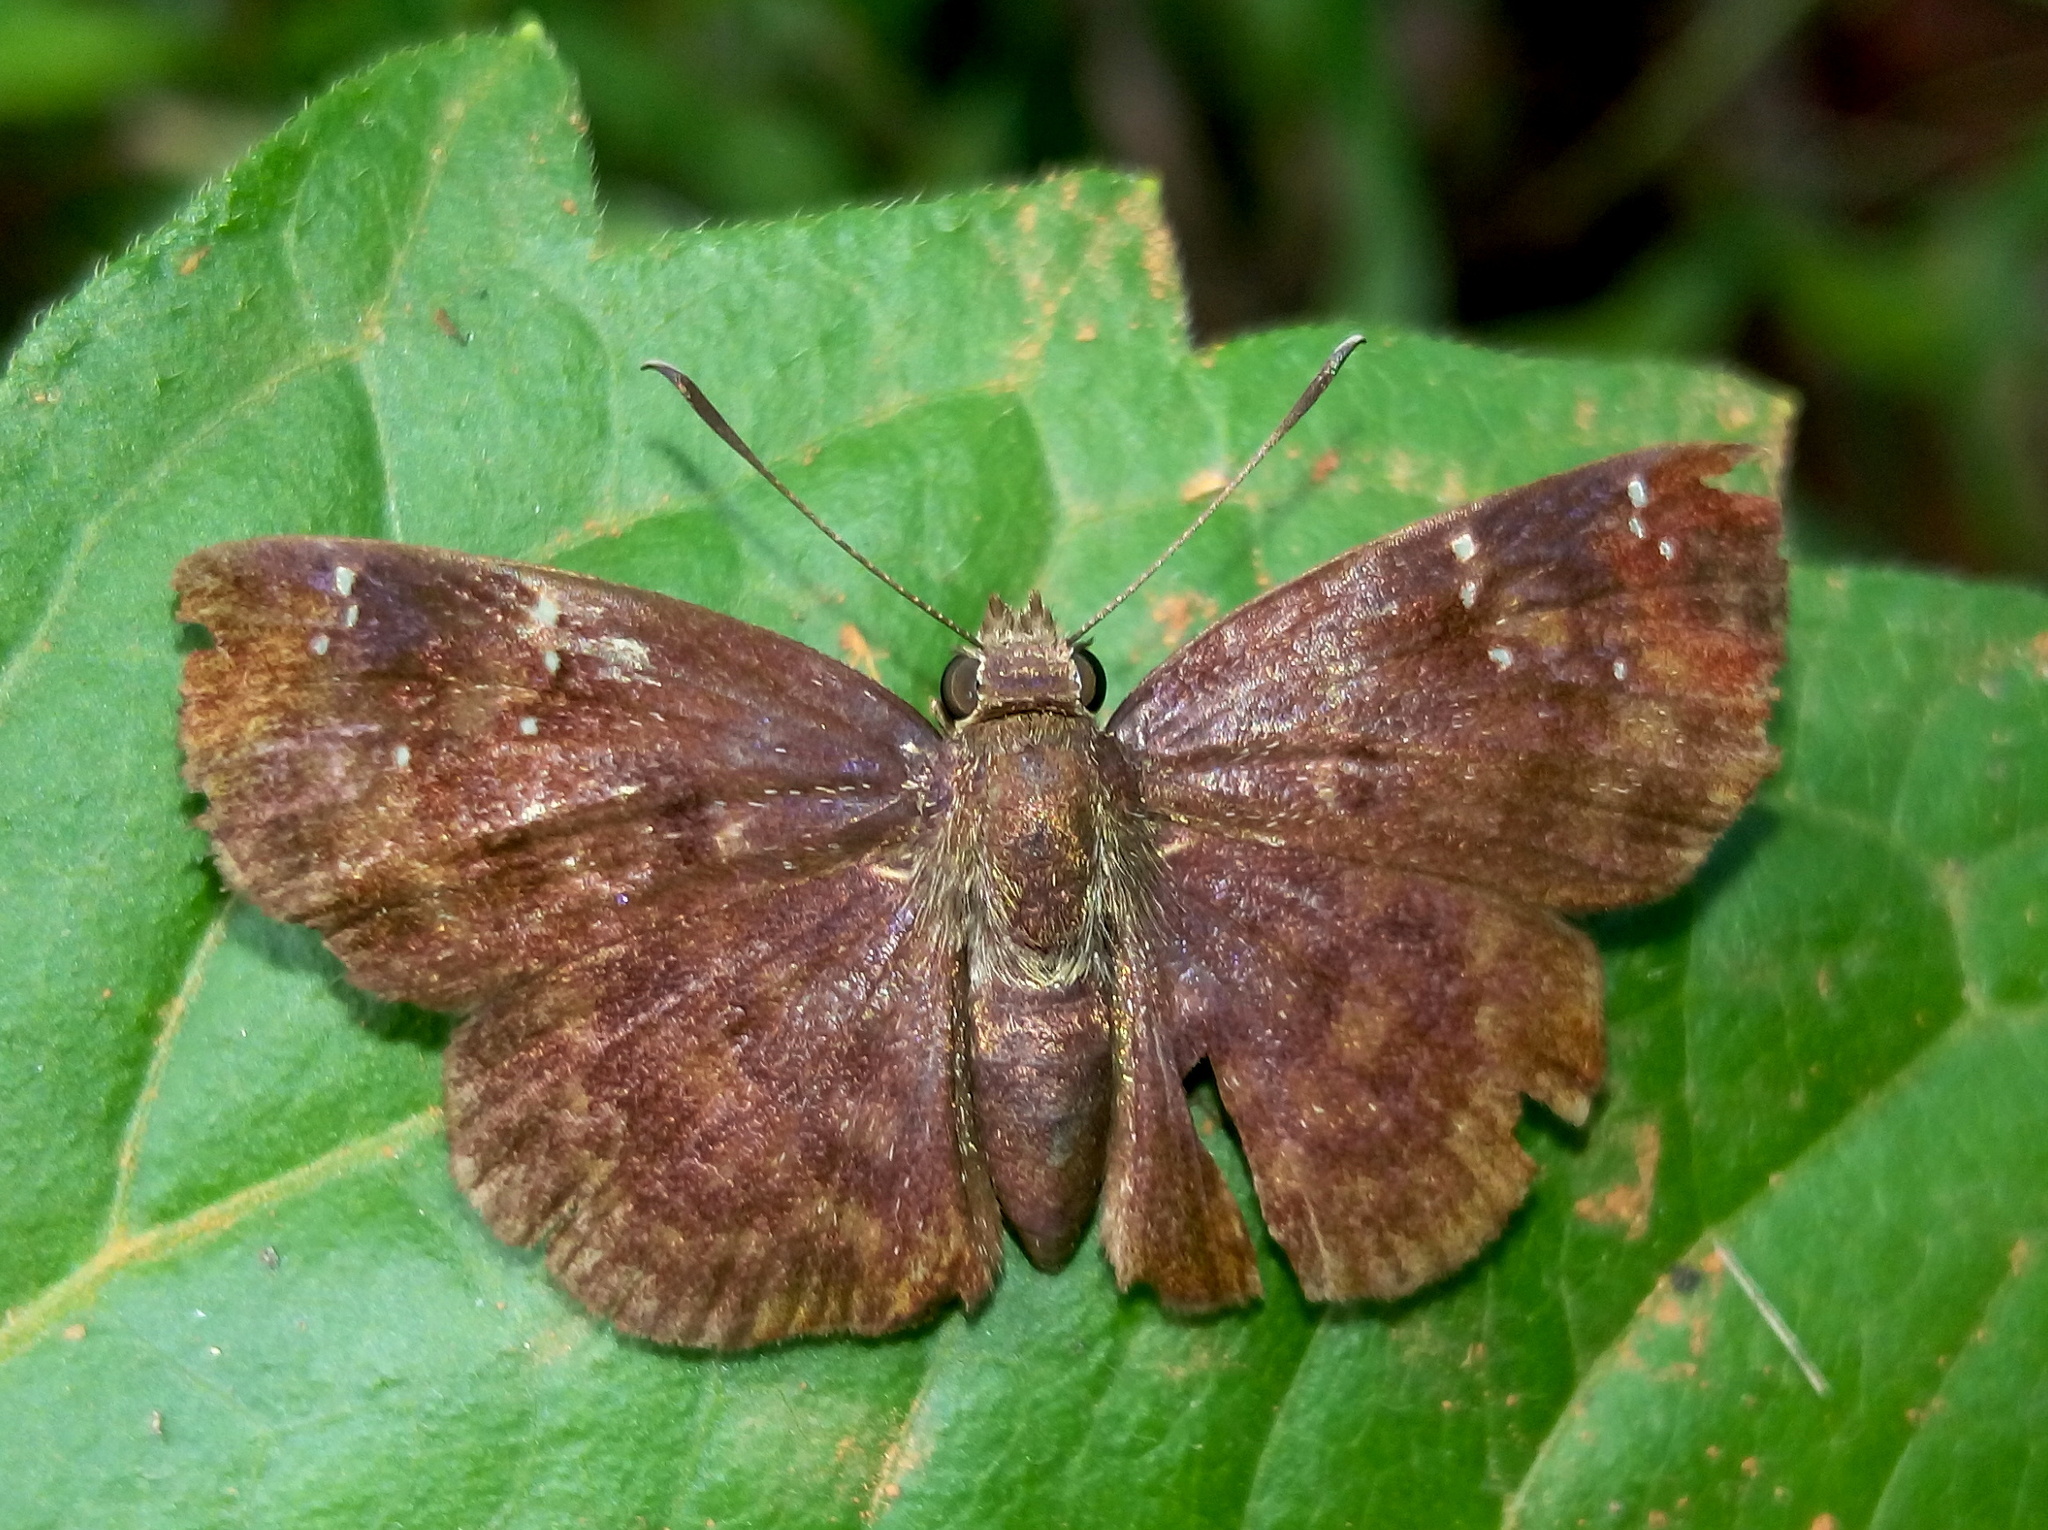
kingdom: Animalia
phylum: Arthropoda
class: Insecta
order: Lepidoptera
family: Hesperiidae
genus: Sarangesa
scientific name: Sarangesa dasahara
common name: Common small flat
